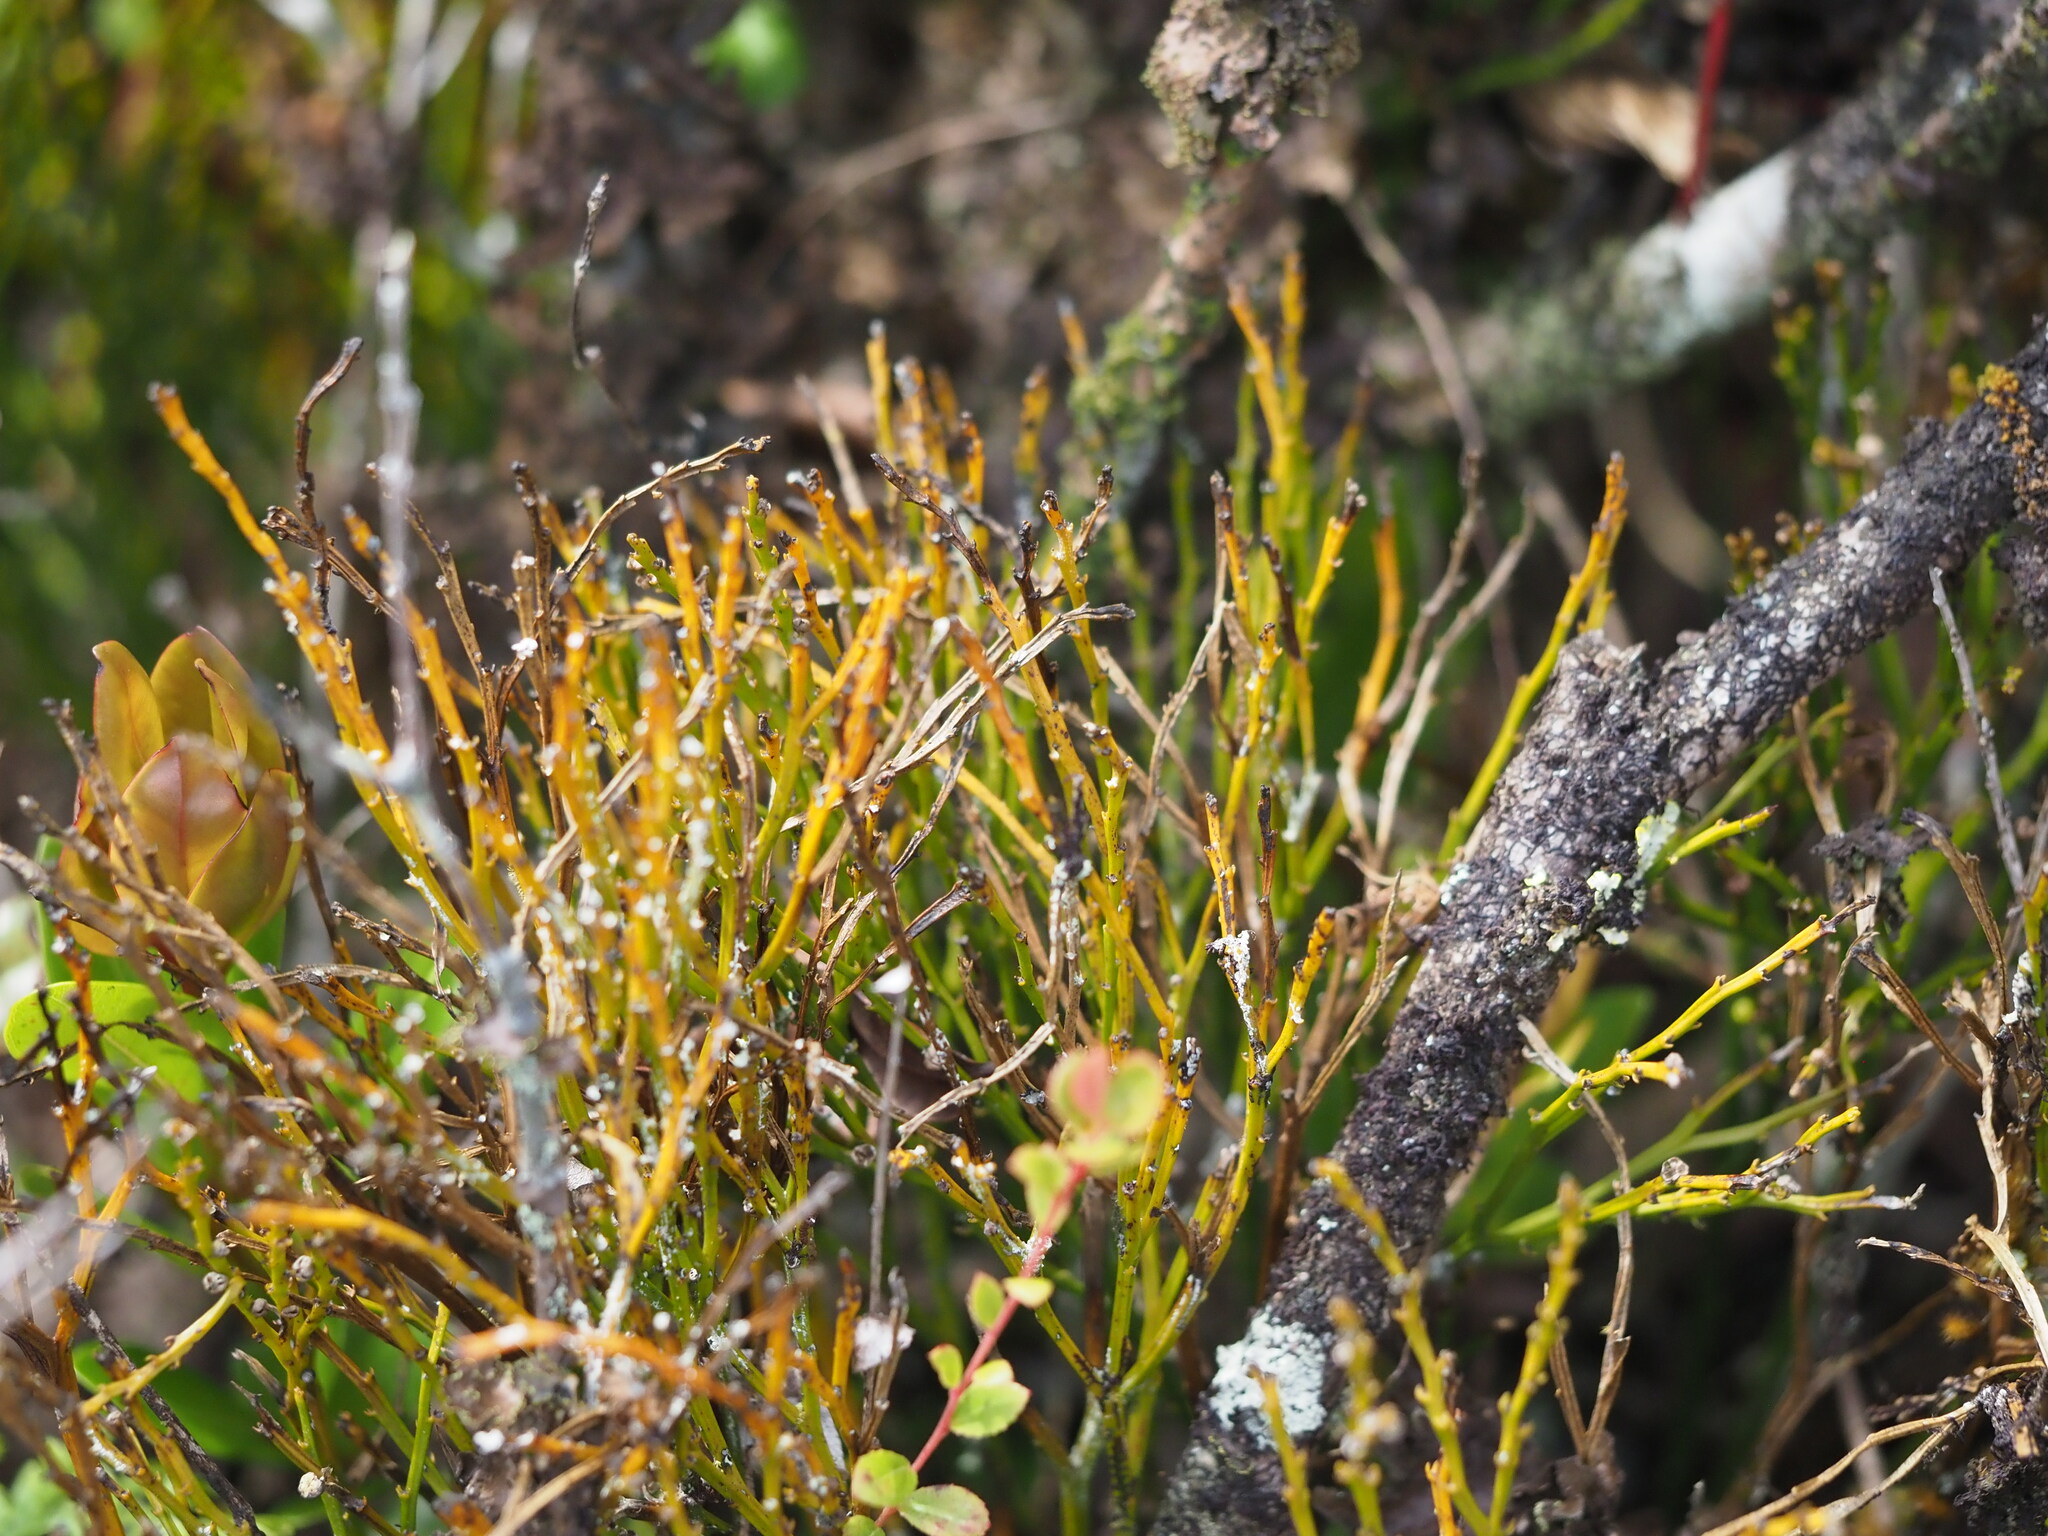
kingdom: Plantae
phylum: Tracheophyta
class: Polypodiopsida
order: Psilotales
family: Psilotaceae
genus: Psilotum
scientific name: Psilotum nudum
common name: Skeleton fork fern
